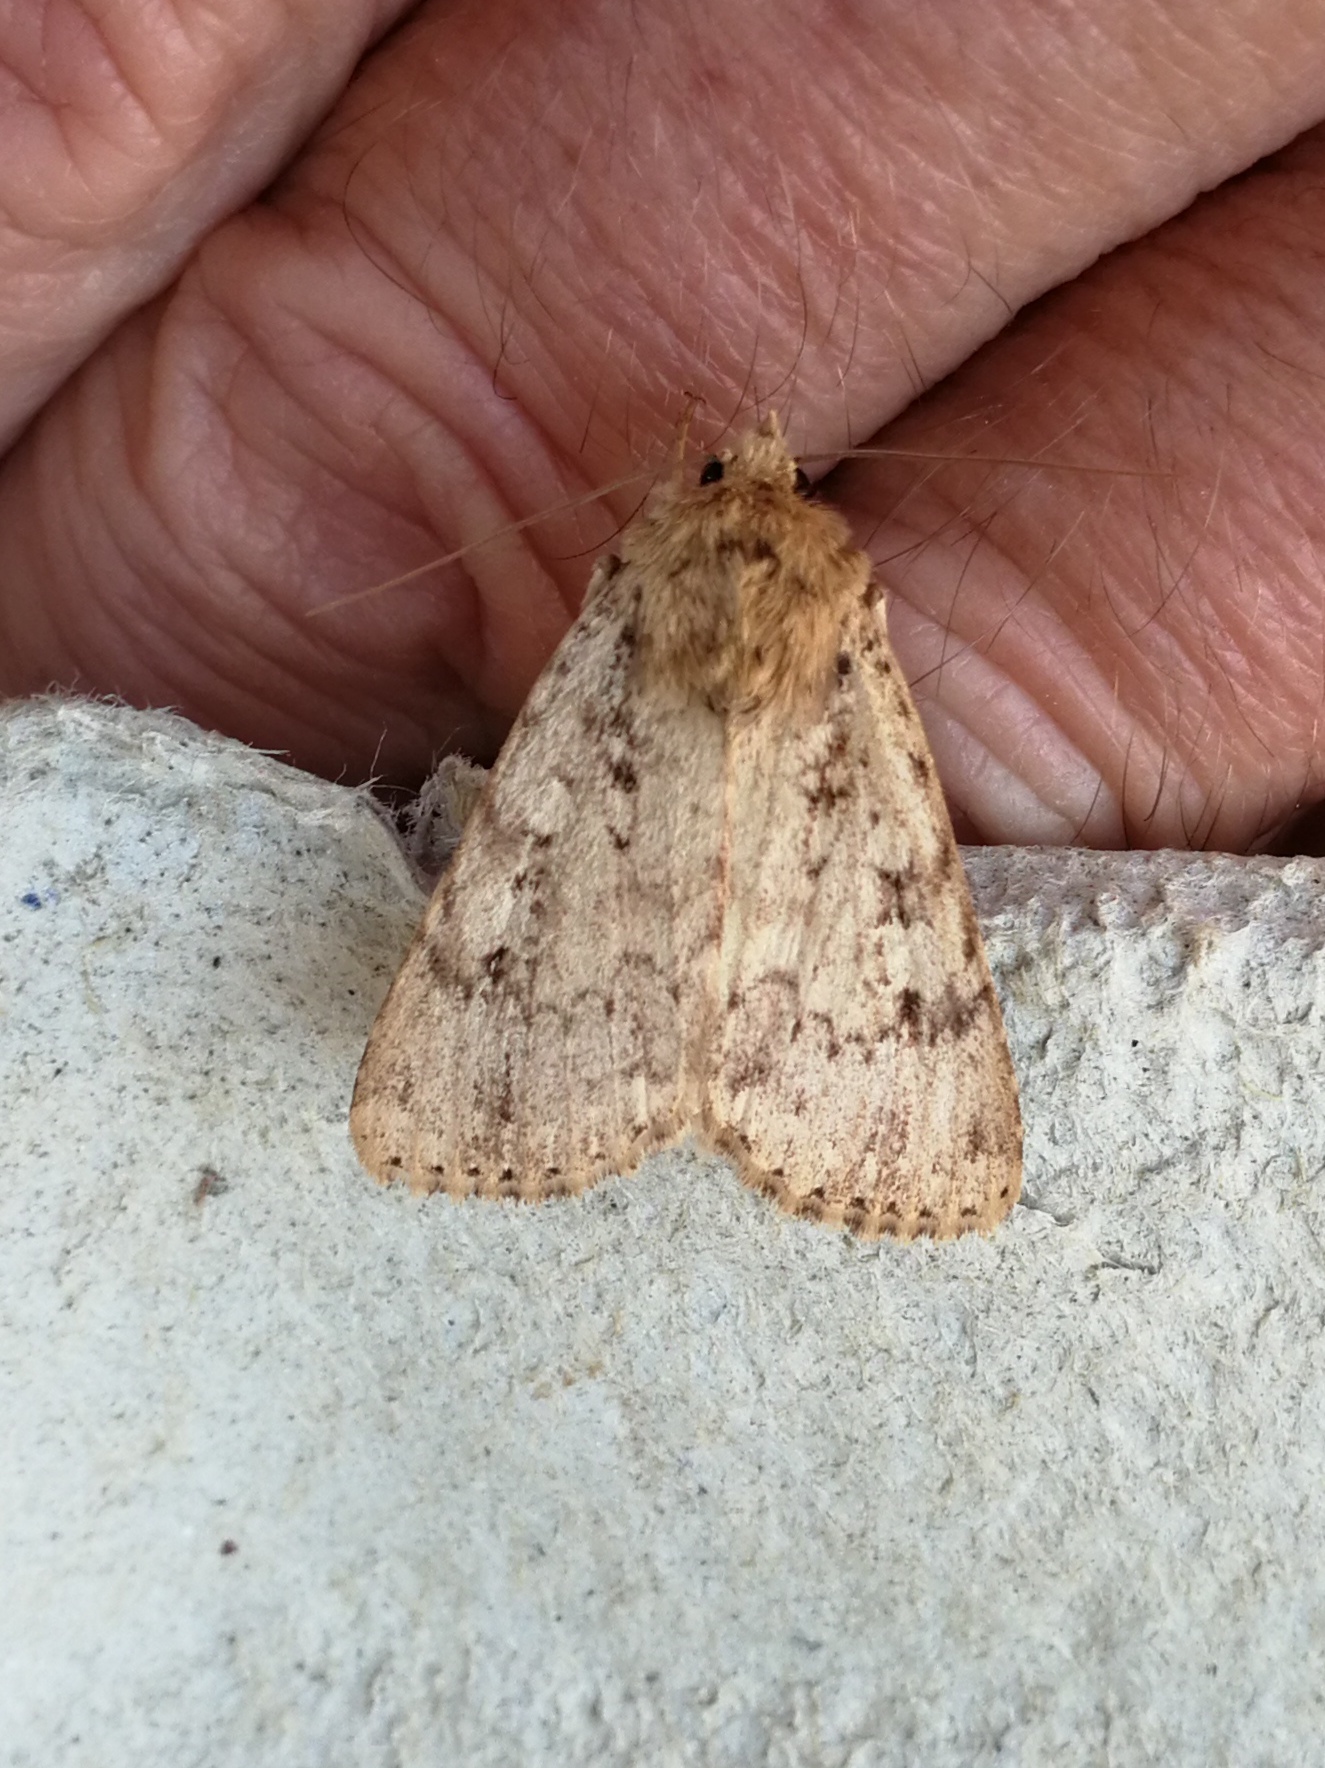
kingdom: Animalia
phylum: Arthropoda
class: Insecta
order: Lepidoptera
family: Noctuidae
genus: Amphipyra
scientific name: Amphipyra effusa
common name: Landguard ochre
